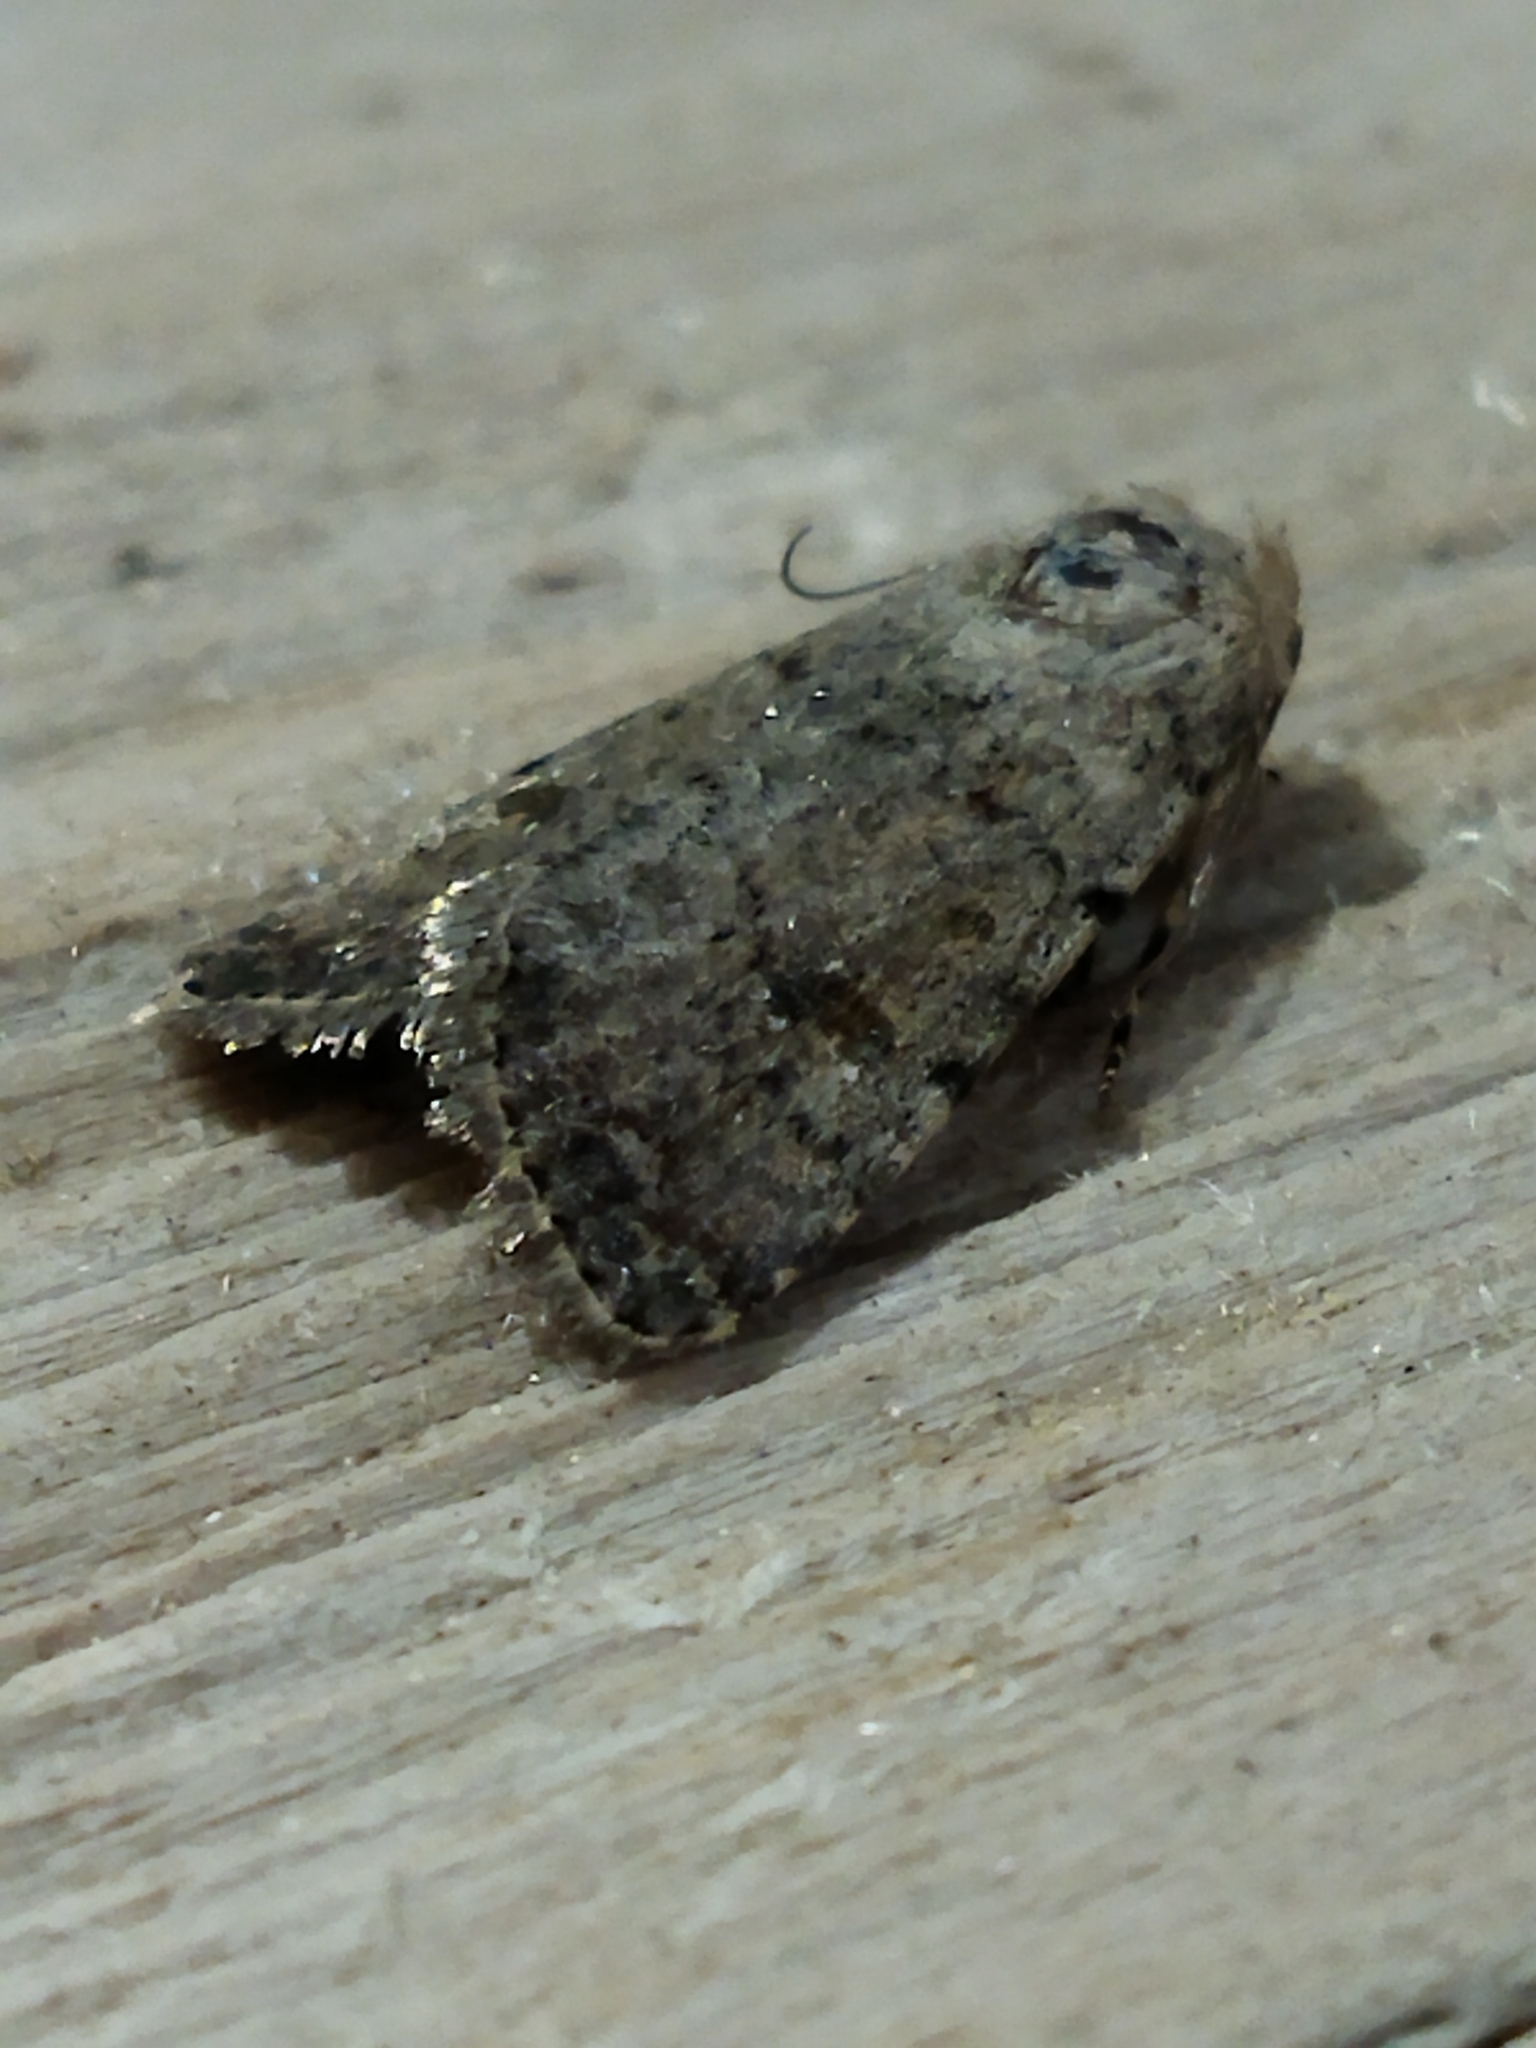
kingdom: Animalia
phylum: Arthropoda
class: Insecta
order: Lepidoptera
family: Noctuidae
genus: Caradrina
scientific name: Caradrina clavipalpis
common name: Pale mottled willow
